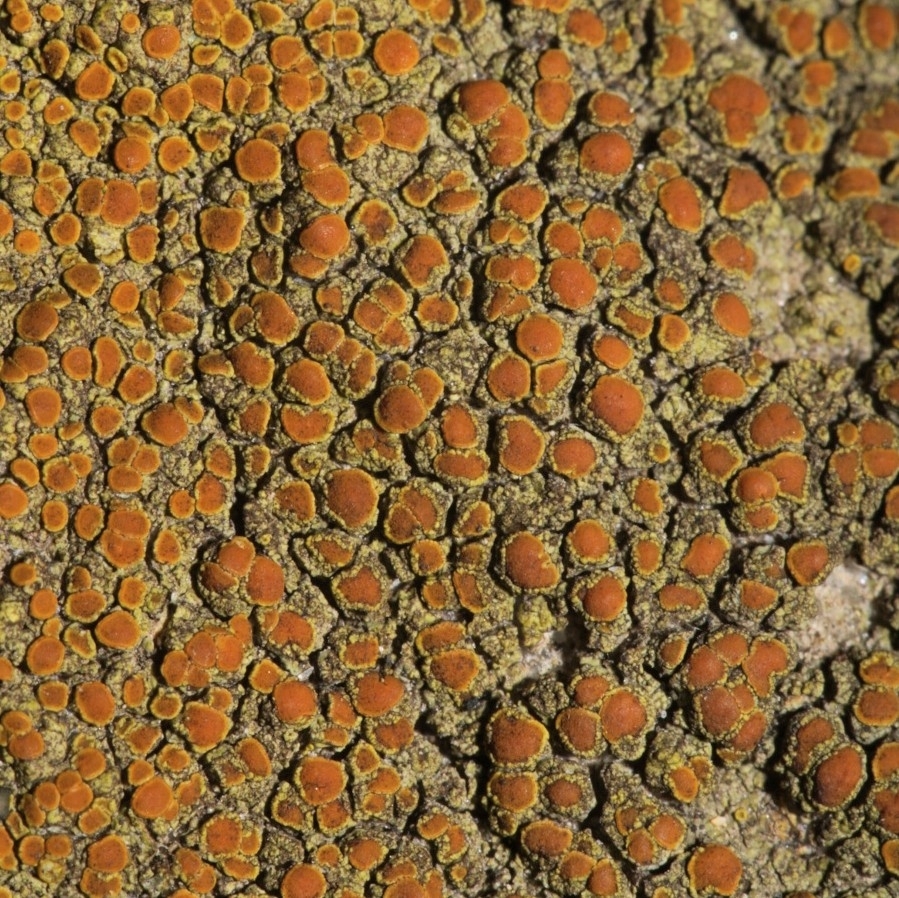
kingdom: Fungi
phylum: Ascomycota
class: Lecanoromycetes
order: Teloschistales
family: Teloschistaceae
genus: Gyalolechia
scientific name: Gyalolechia flavovirescens
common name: Sulphur firedot
